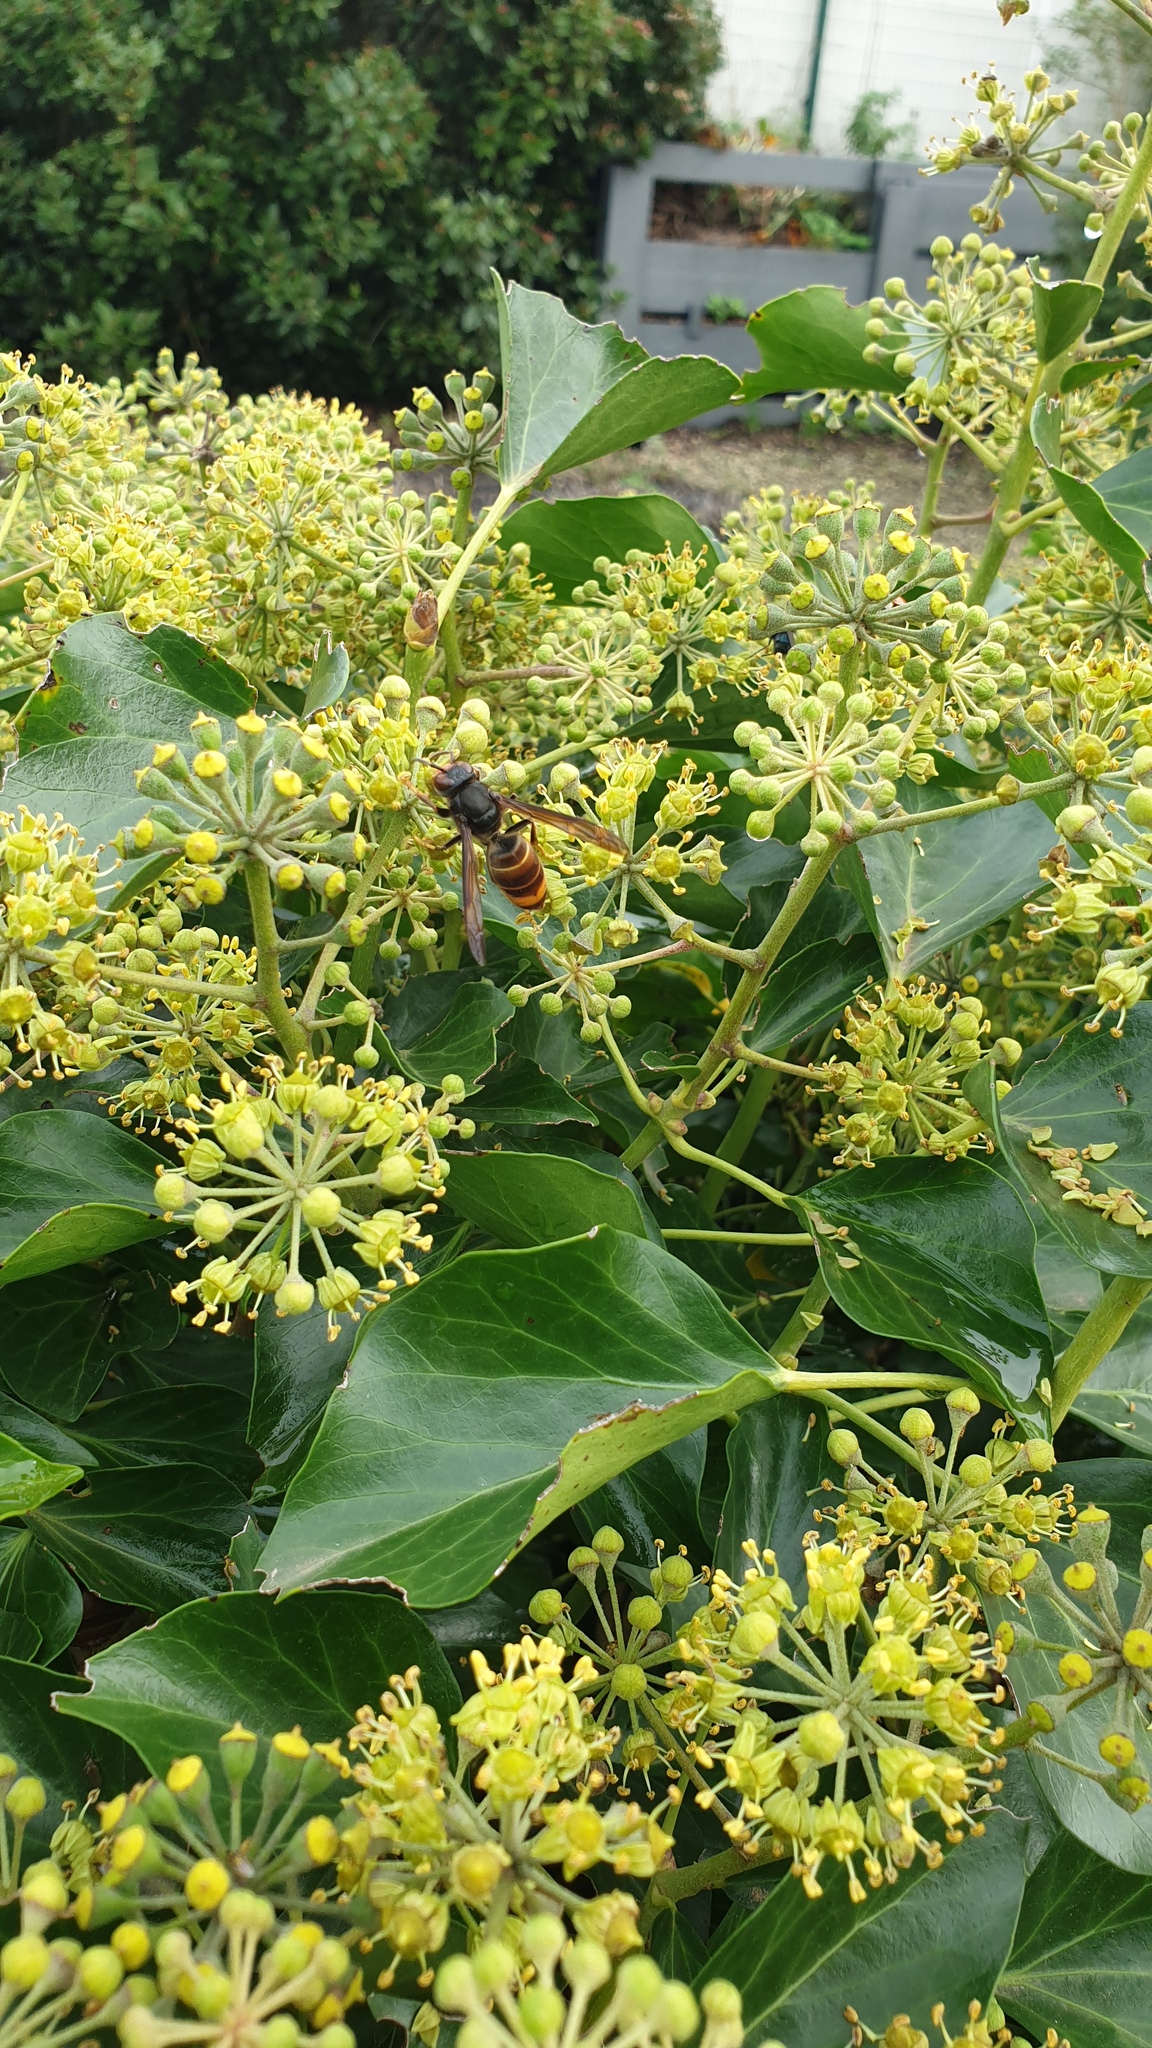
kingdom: Animalia
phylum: Arthropoda
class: Insecta
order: Hymenoptera
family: Vespidae
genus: Vespa
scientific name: Vespa velutina
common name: Asian hornet
